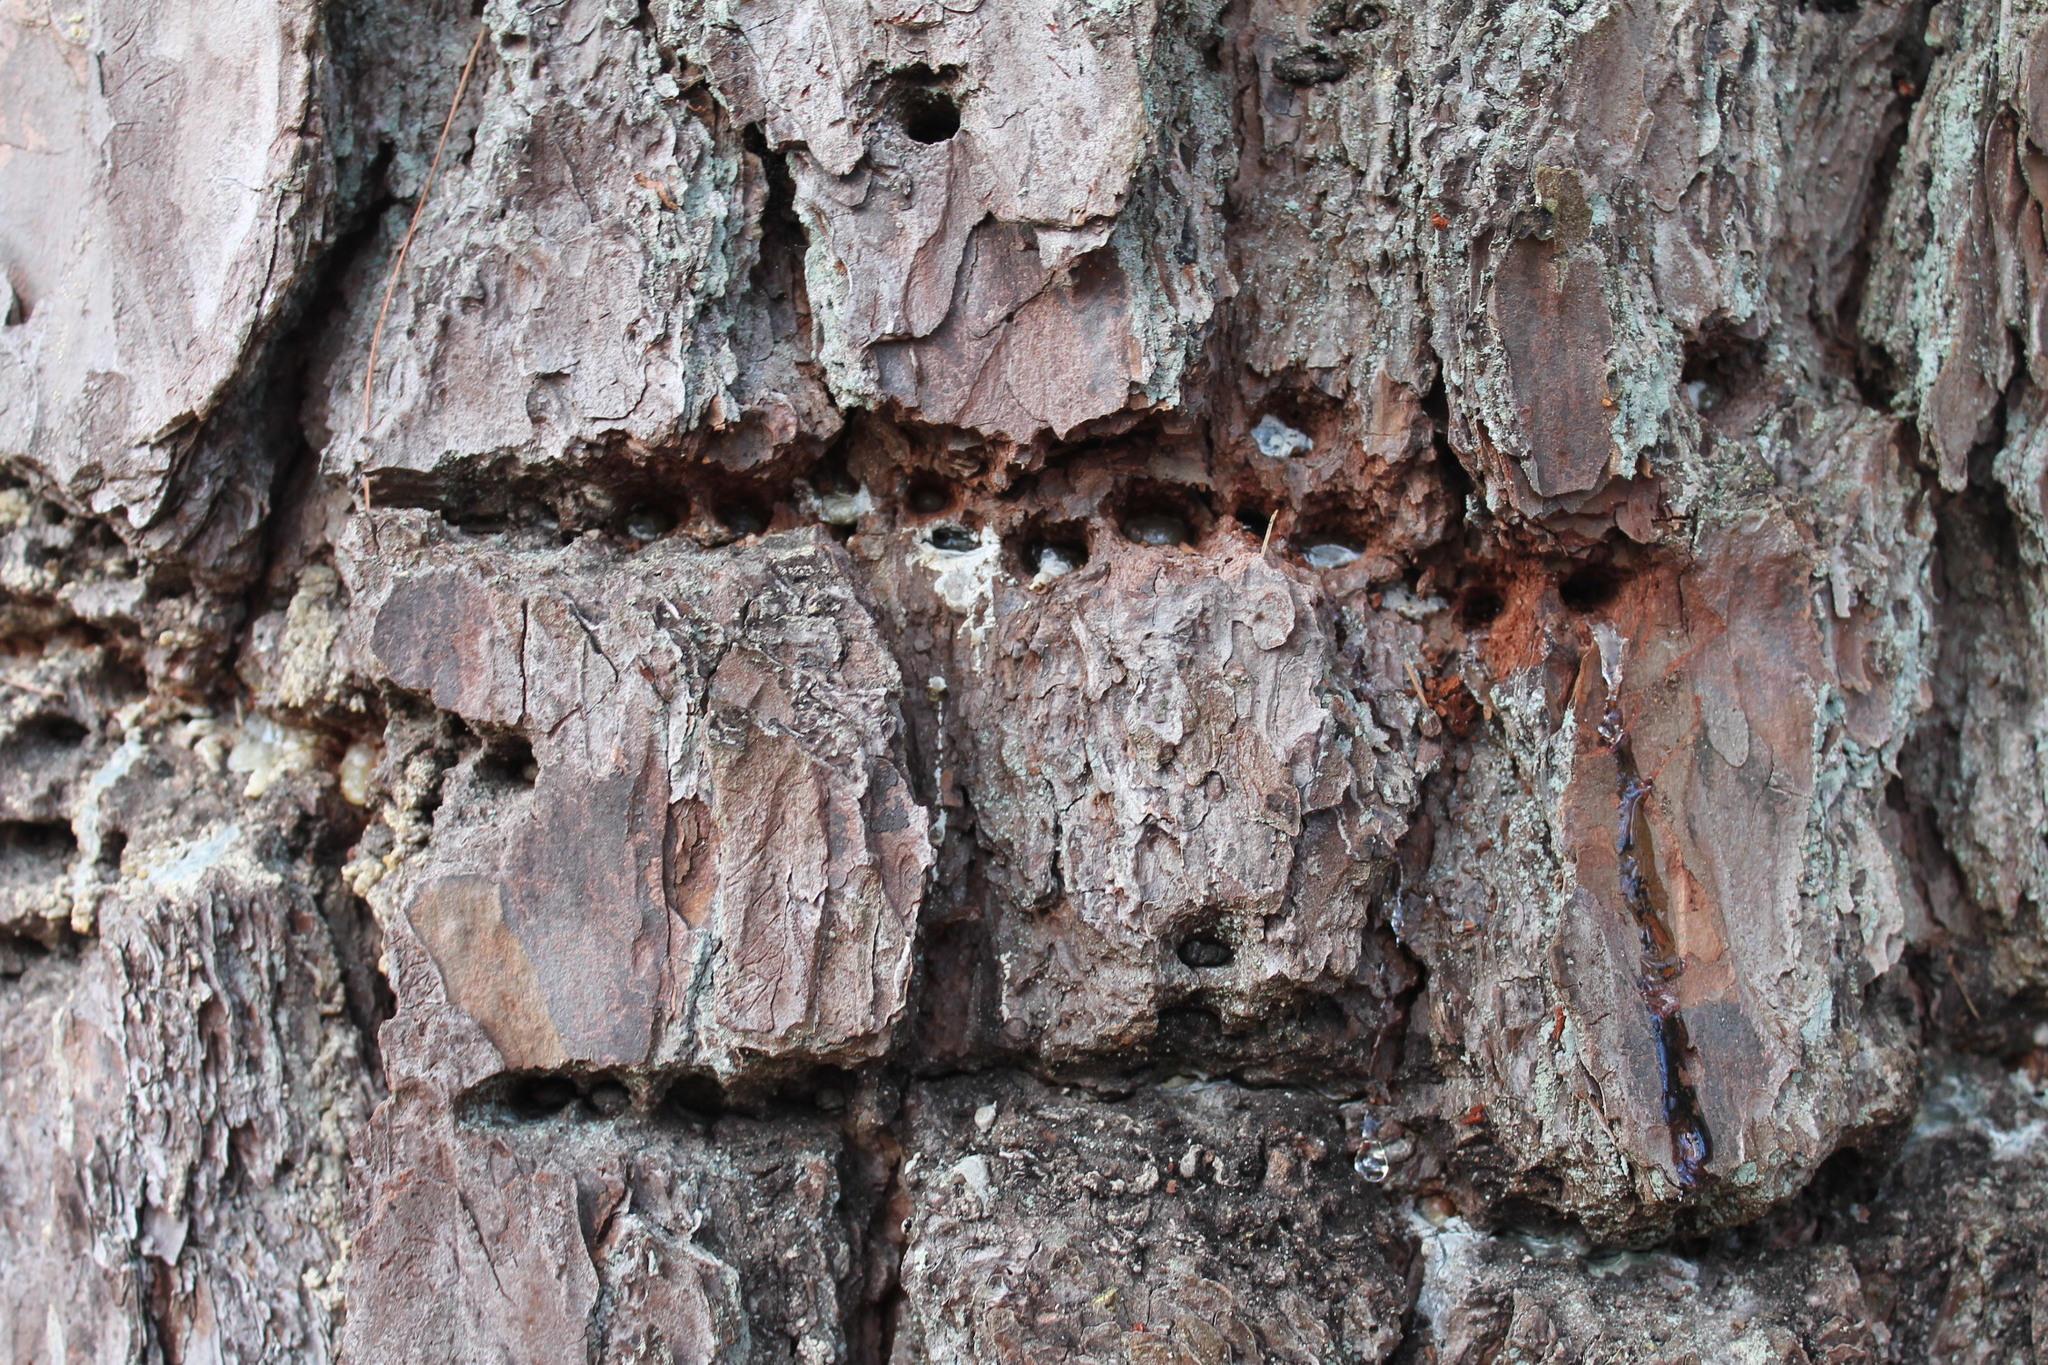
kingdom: Animalia
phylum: Chordata
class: Aves
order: Piciformes
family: Picidae
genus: Sphyrapicus
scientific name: Sphyrapicus varius
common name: Yellow-bellied sapsucker
